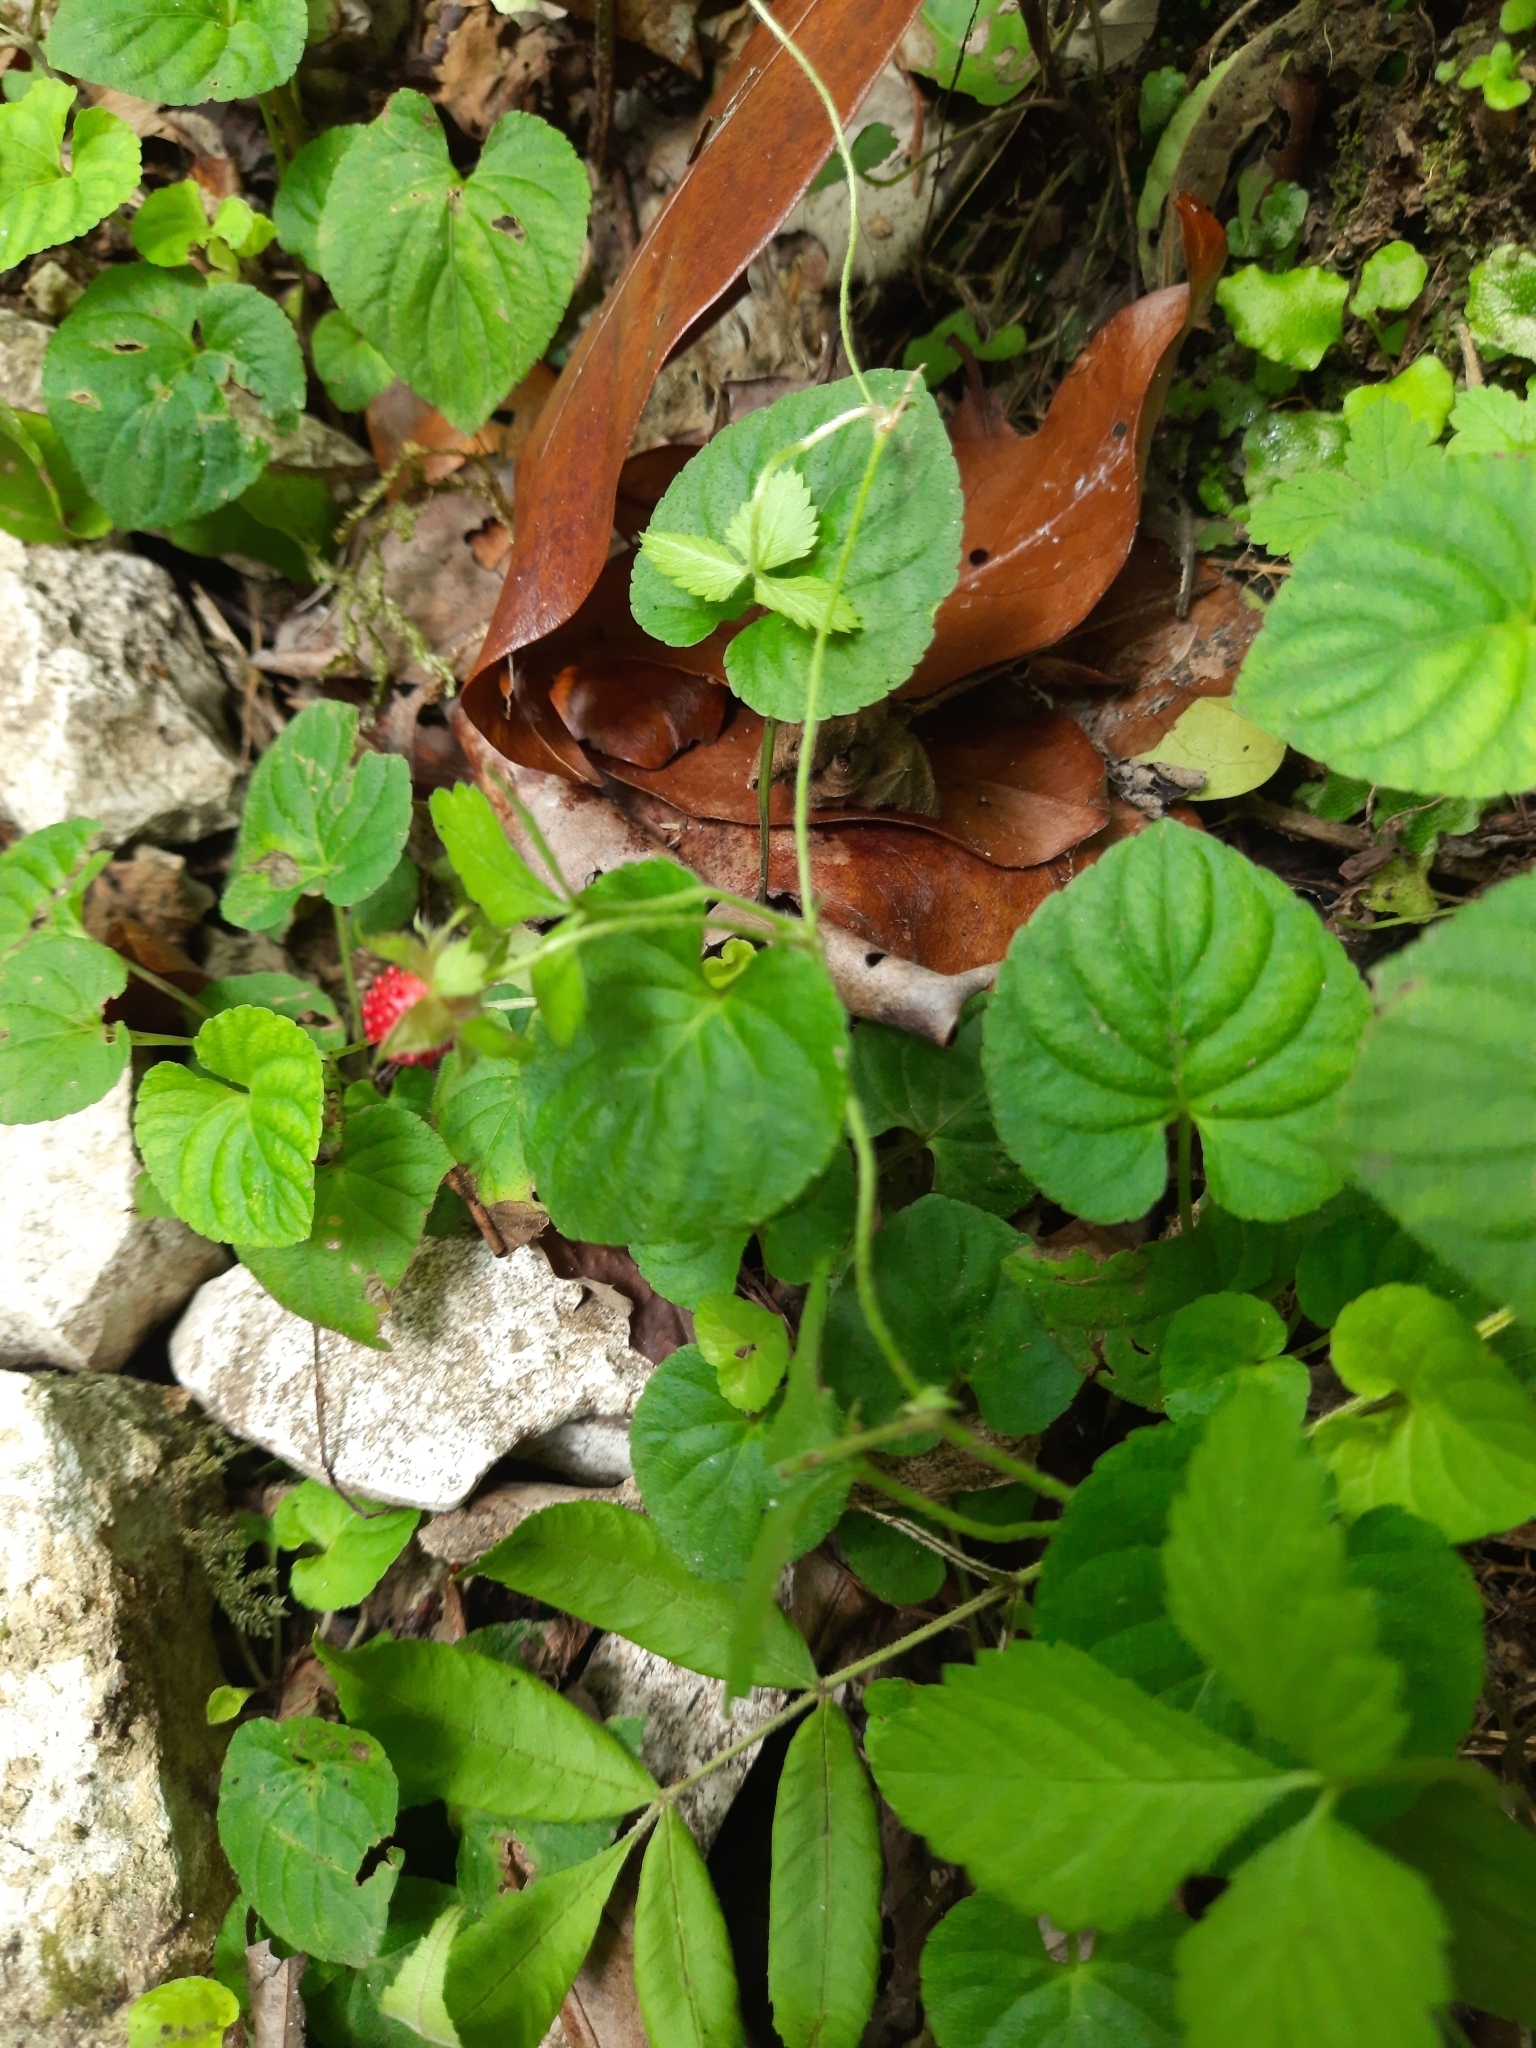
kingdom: Plantae
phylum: Tracheophyta
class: Magnoliopsida
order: Rosales
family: Rosaceae
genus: Potentilla
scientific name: Potentilla indica
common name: Yellow-flowered strawberry
